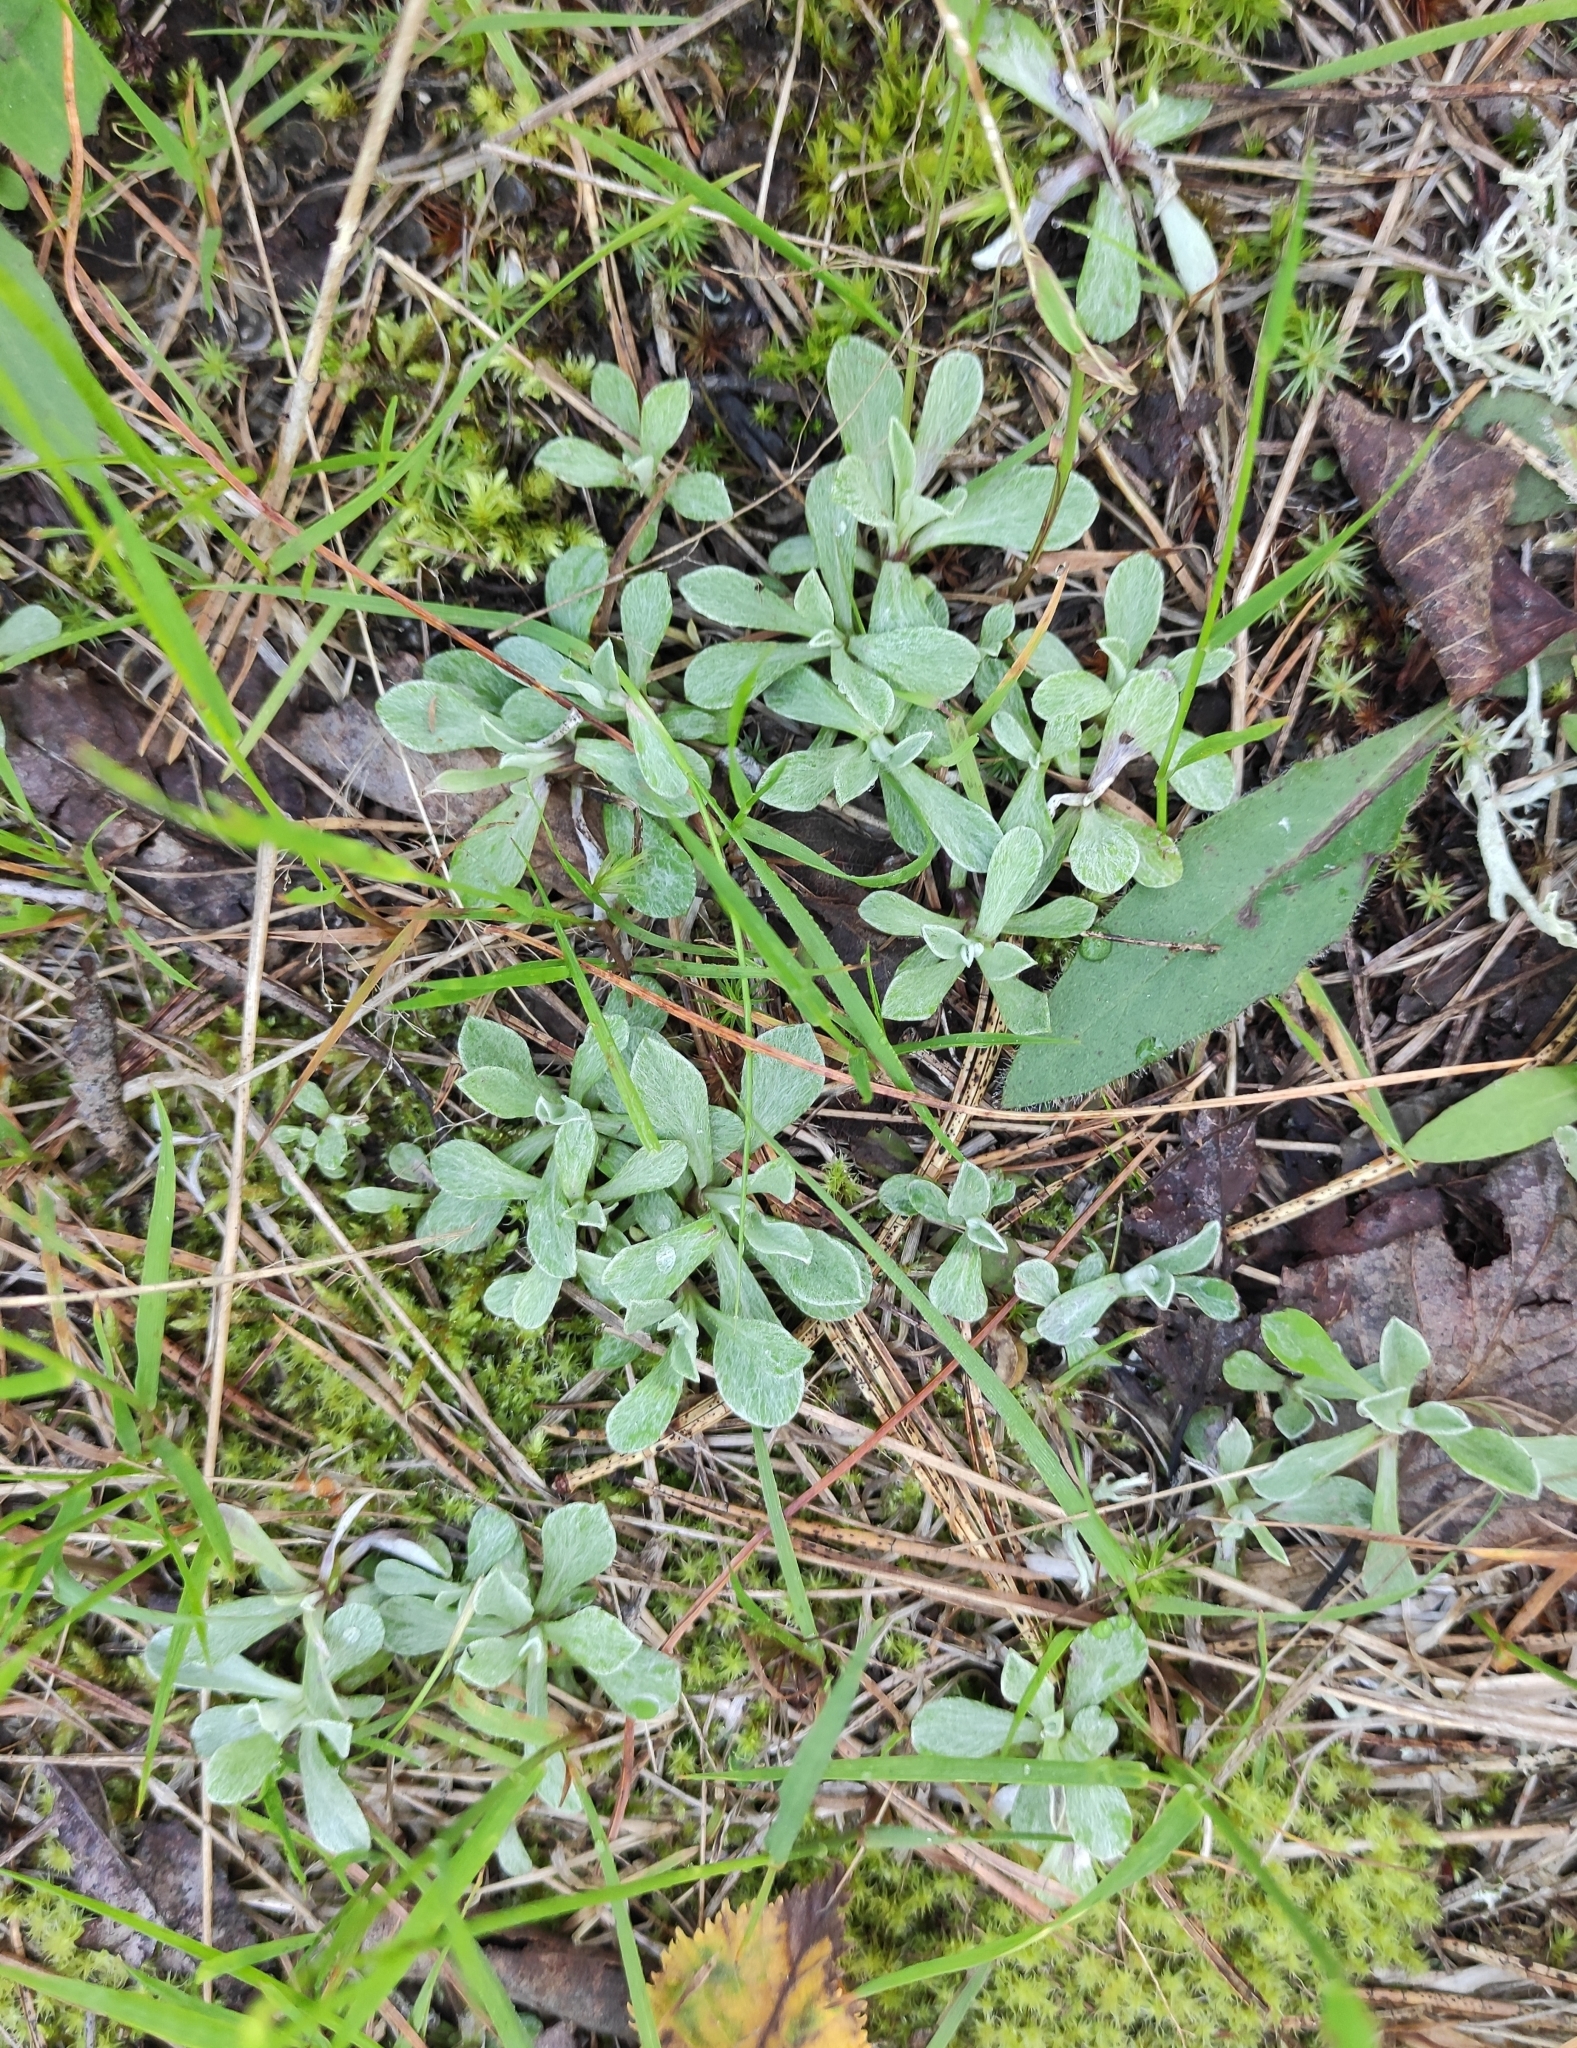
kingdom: Plantae
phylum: Tracheophyta
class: Magnoliopsida
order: Asterales
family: Asteraceae
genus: Antennaria
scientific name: Antennaria dioica
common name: Mountain everlasting
